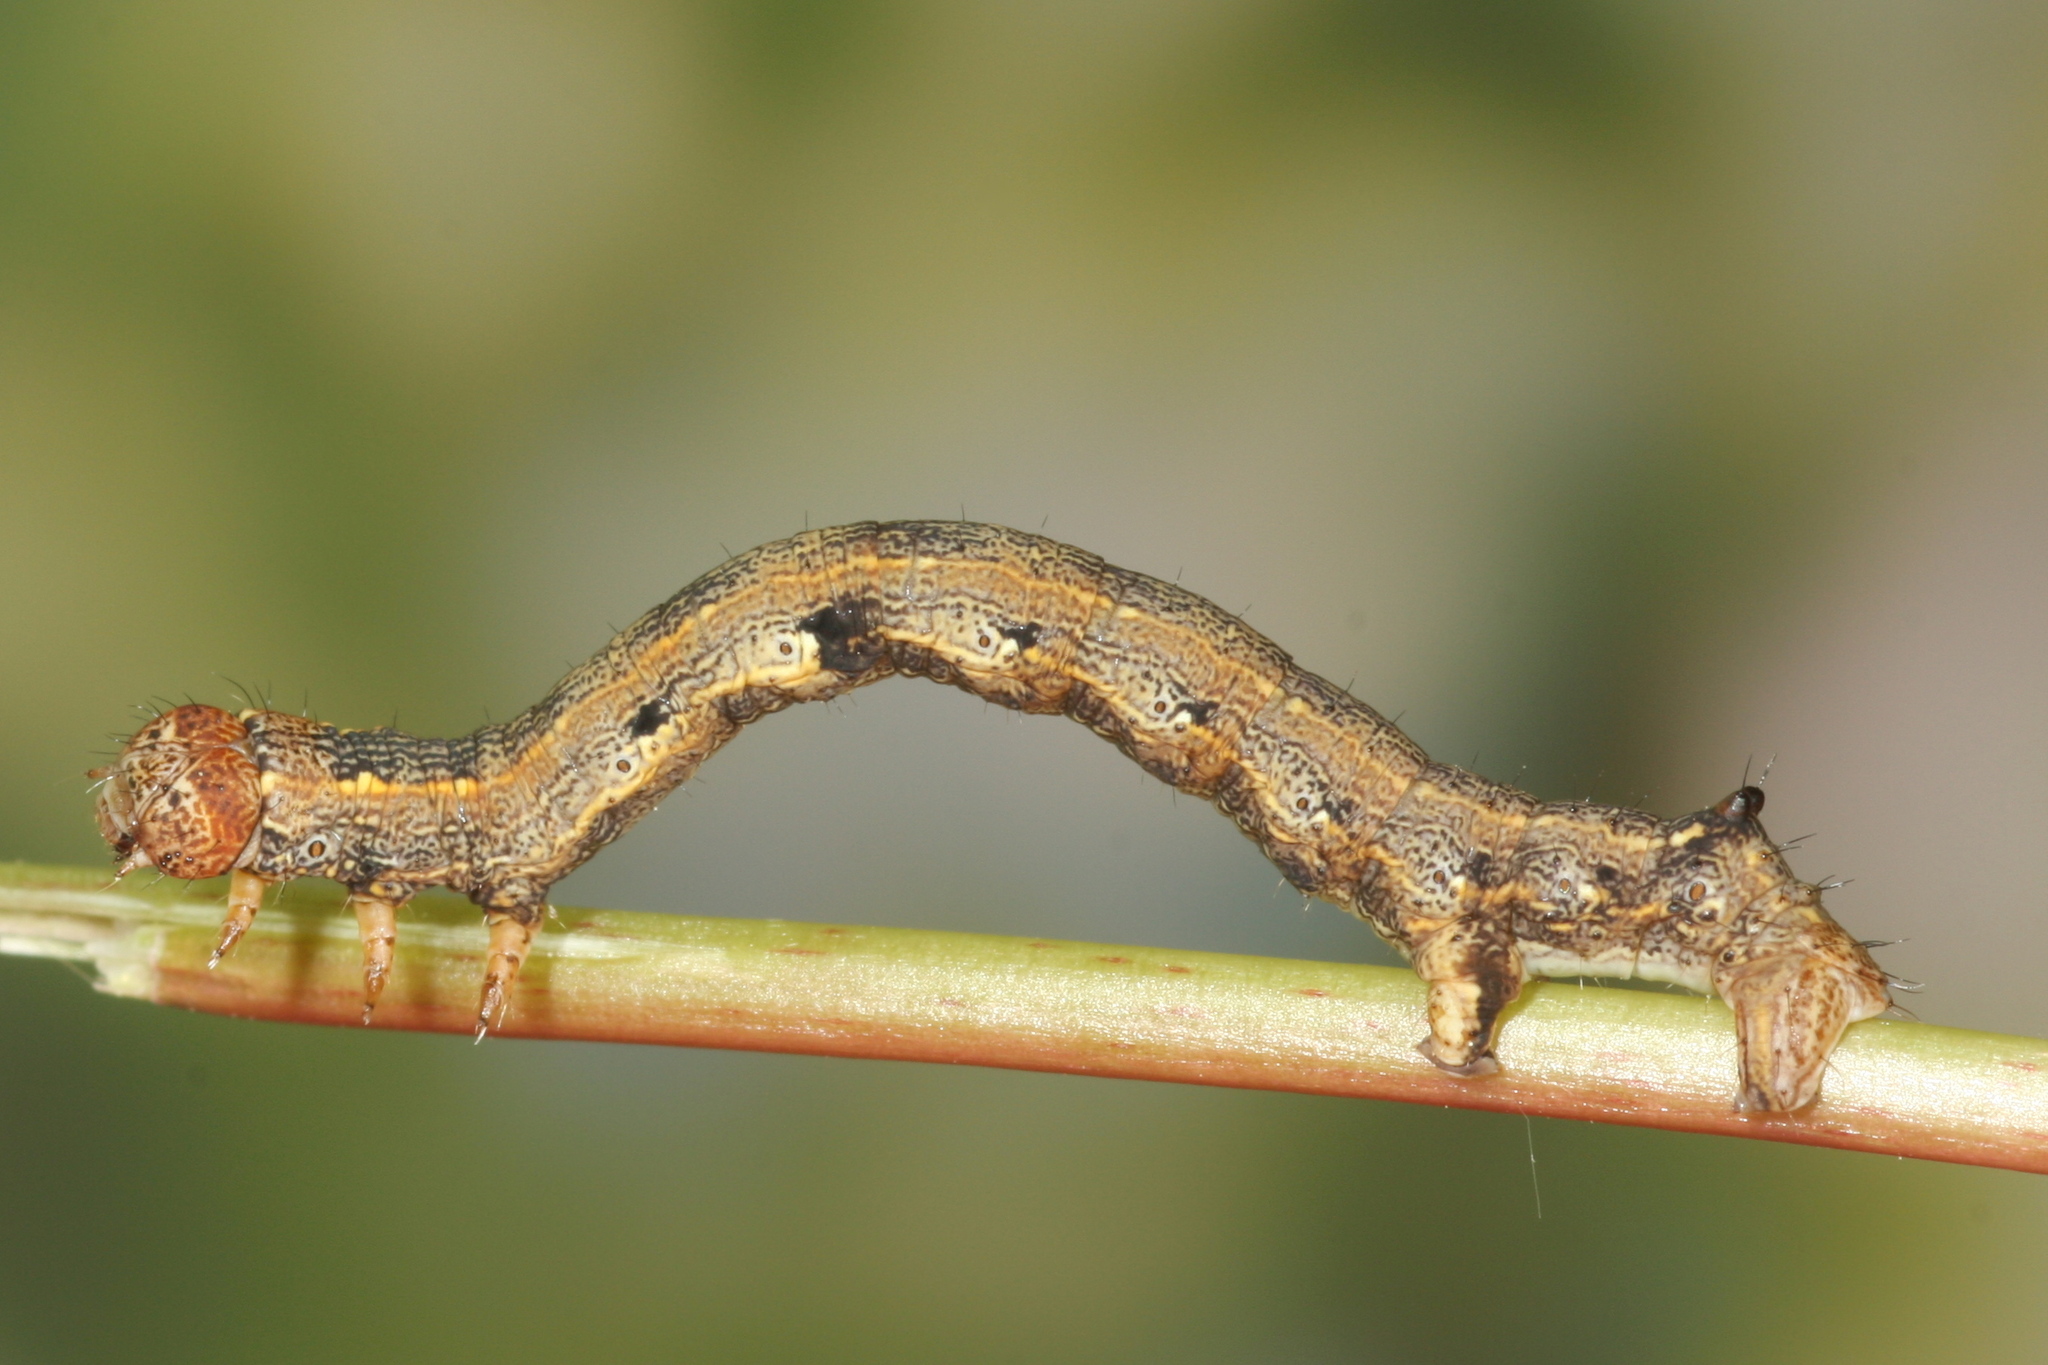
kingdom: Animalia
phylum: Arthropoda
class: Insecta
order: Lepidoptera
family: Geometridae
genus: Colotois
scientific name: Colotois pennaria
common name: Feathered thorn
